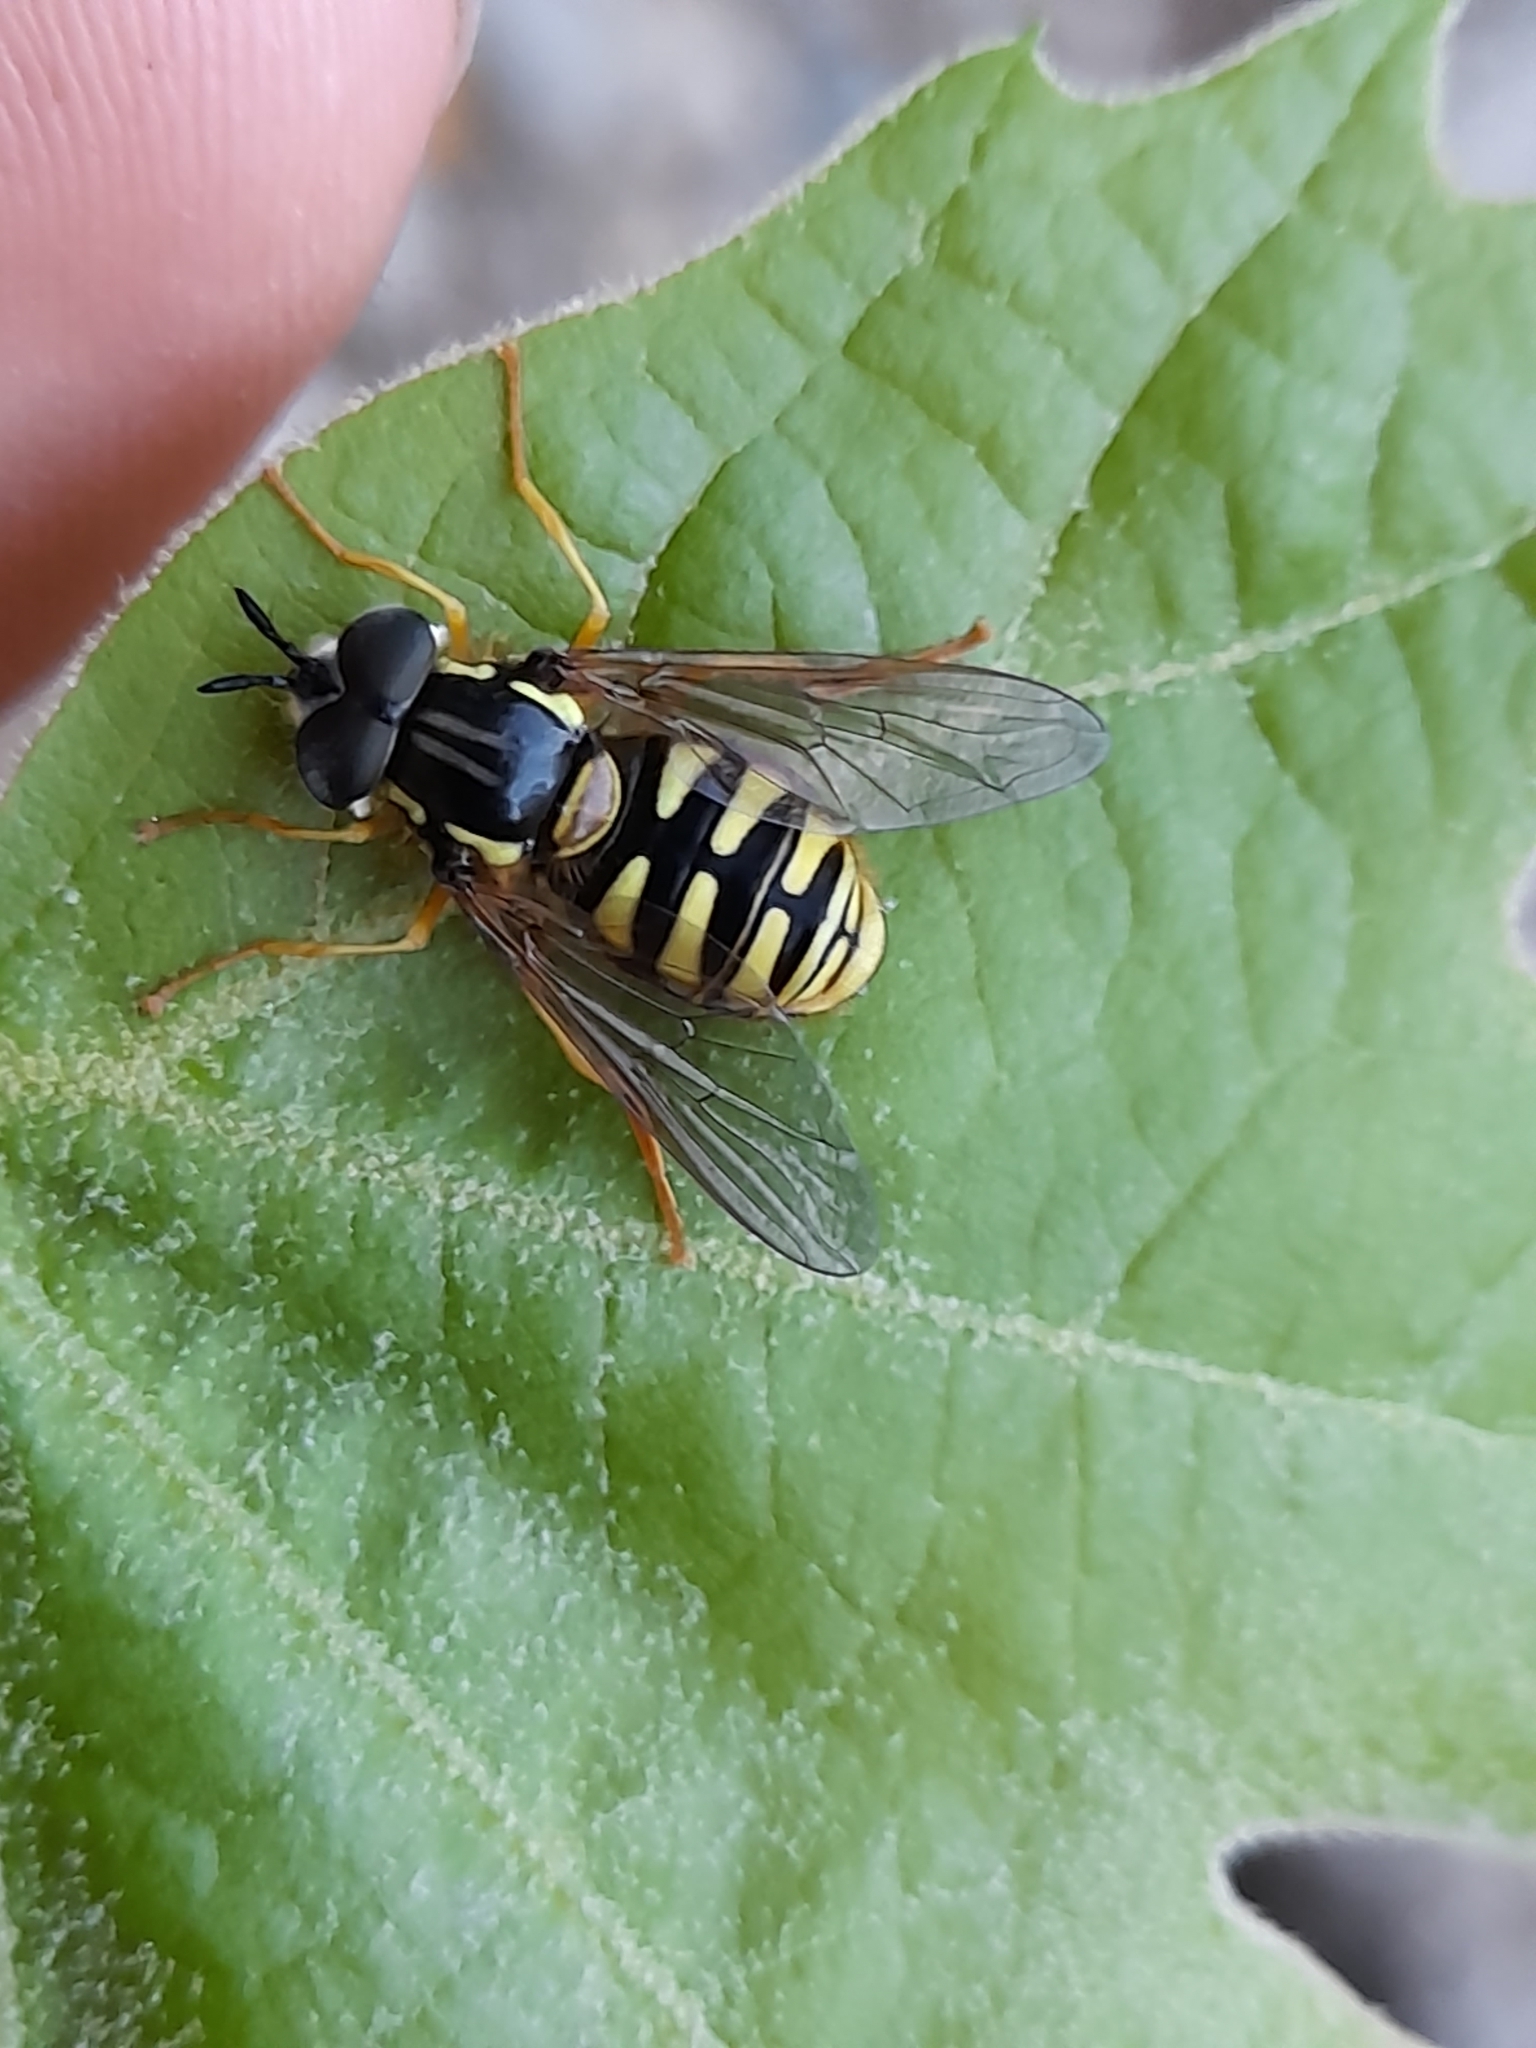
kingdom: Animalia
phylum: Arthropoda
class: Insecta
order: Diptera
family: Syrphidae
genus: Chrysotoxum
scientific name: Chrysotoxum cautum
